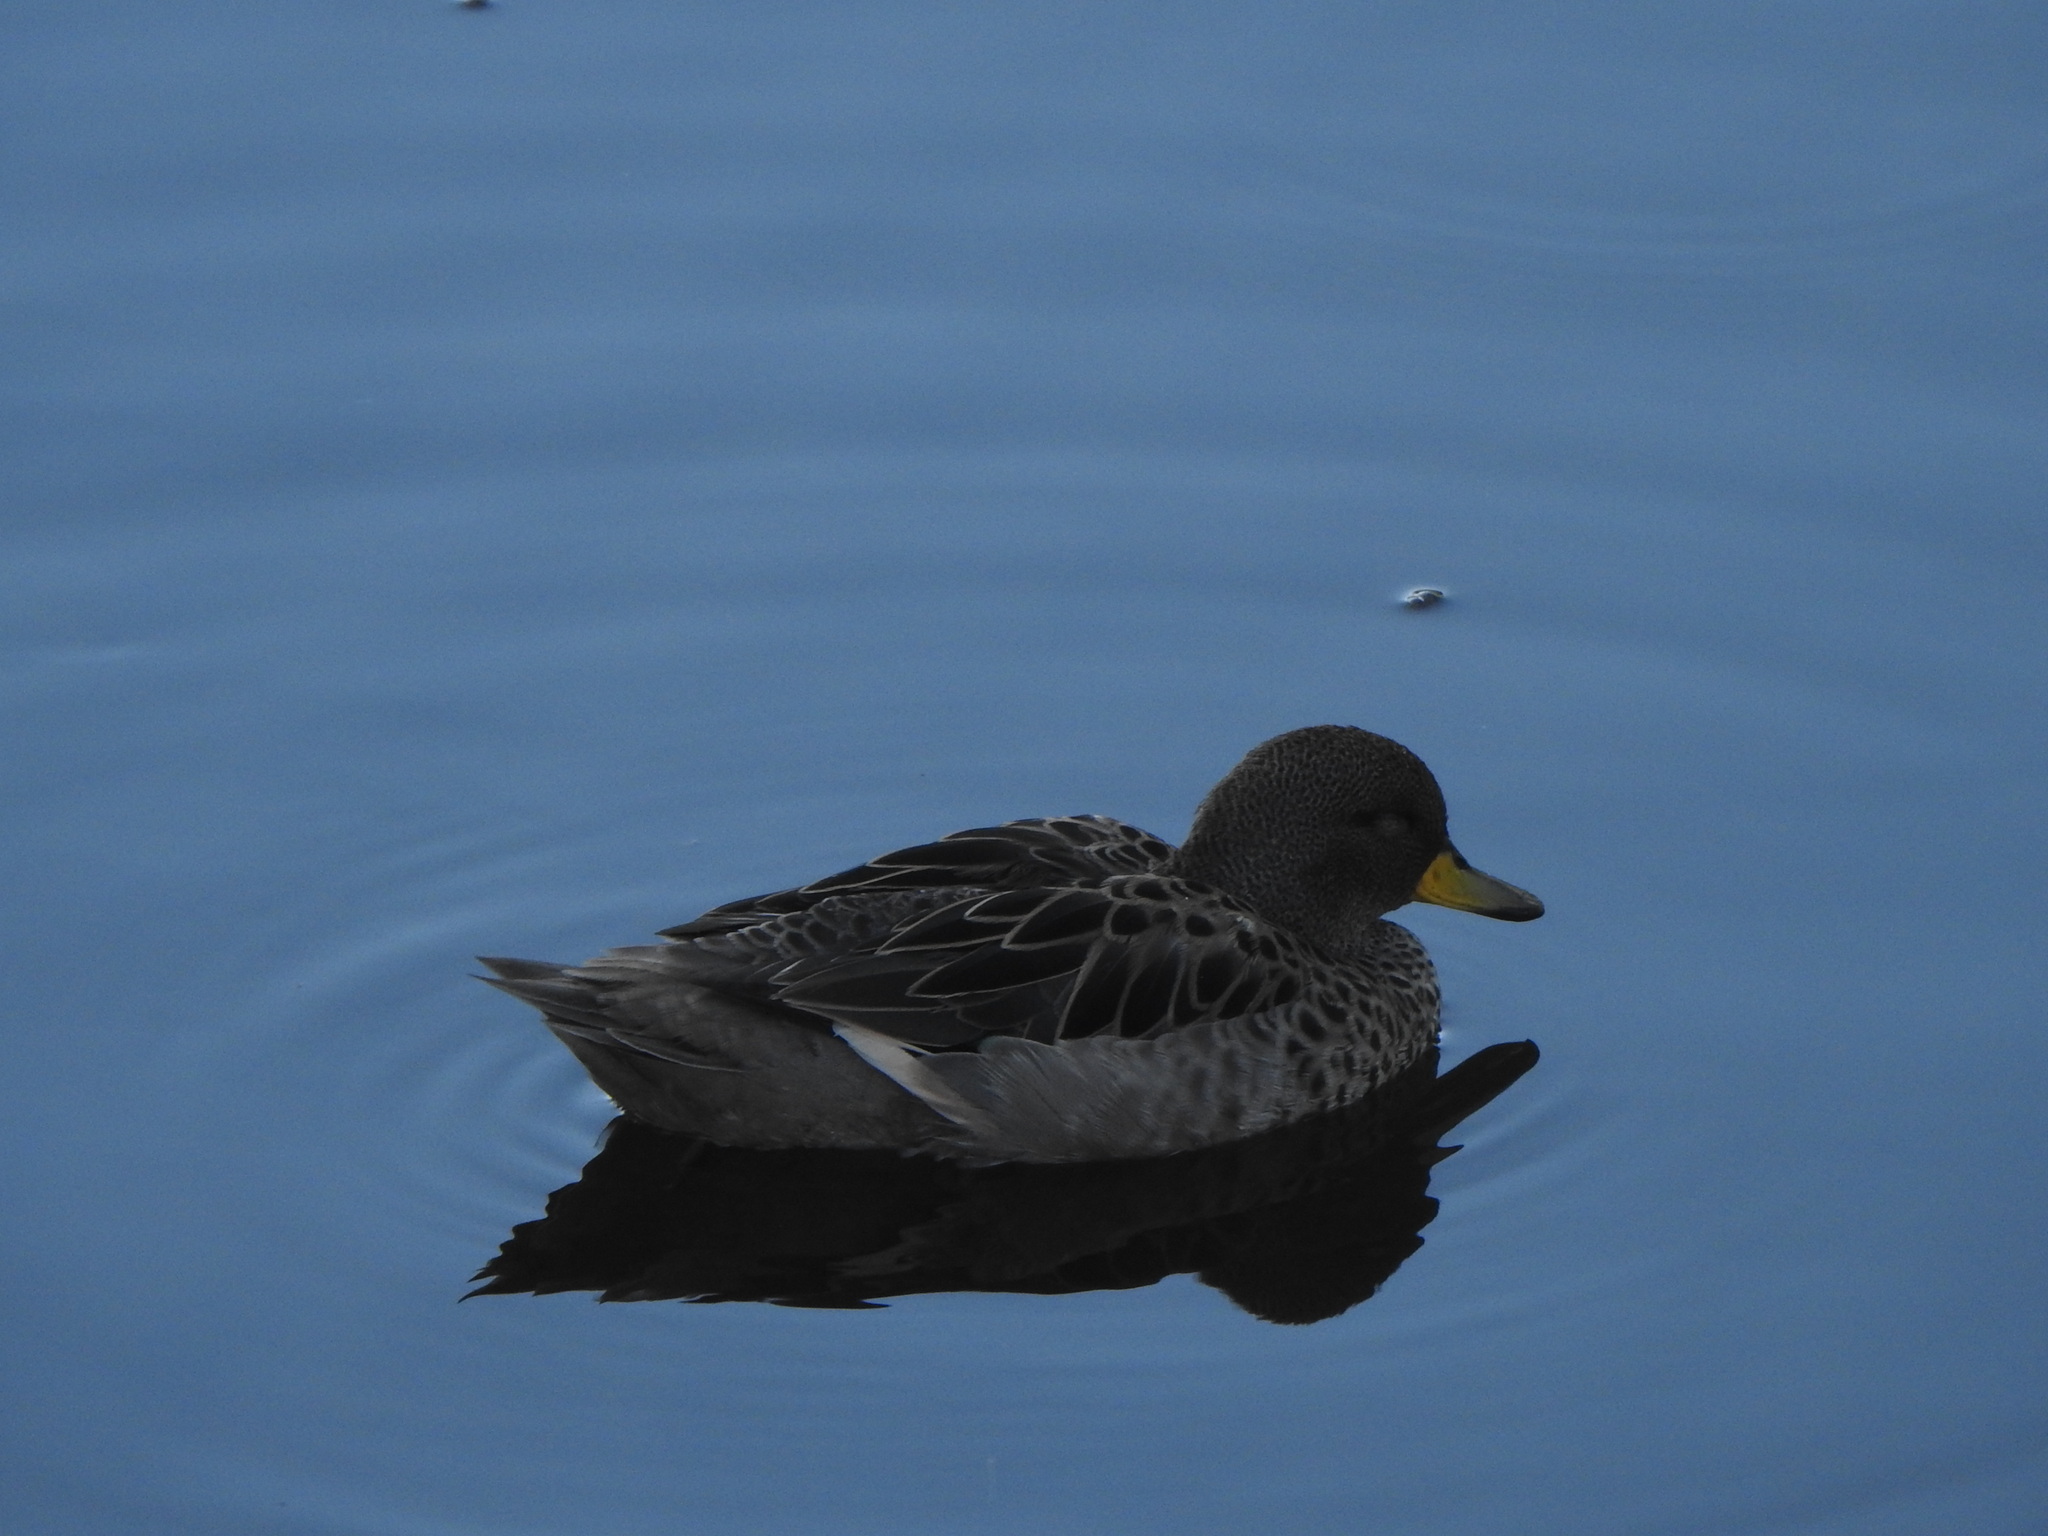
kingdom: Animalia
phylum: Chordata
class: Aves
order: Anseriformes
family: Anatidae
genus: Anas
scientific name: Anas flavirostris
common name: Yellow-billed teal
